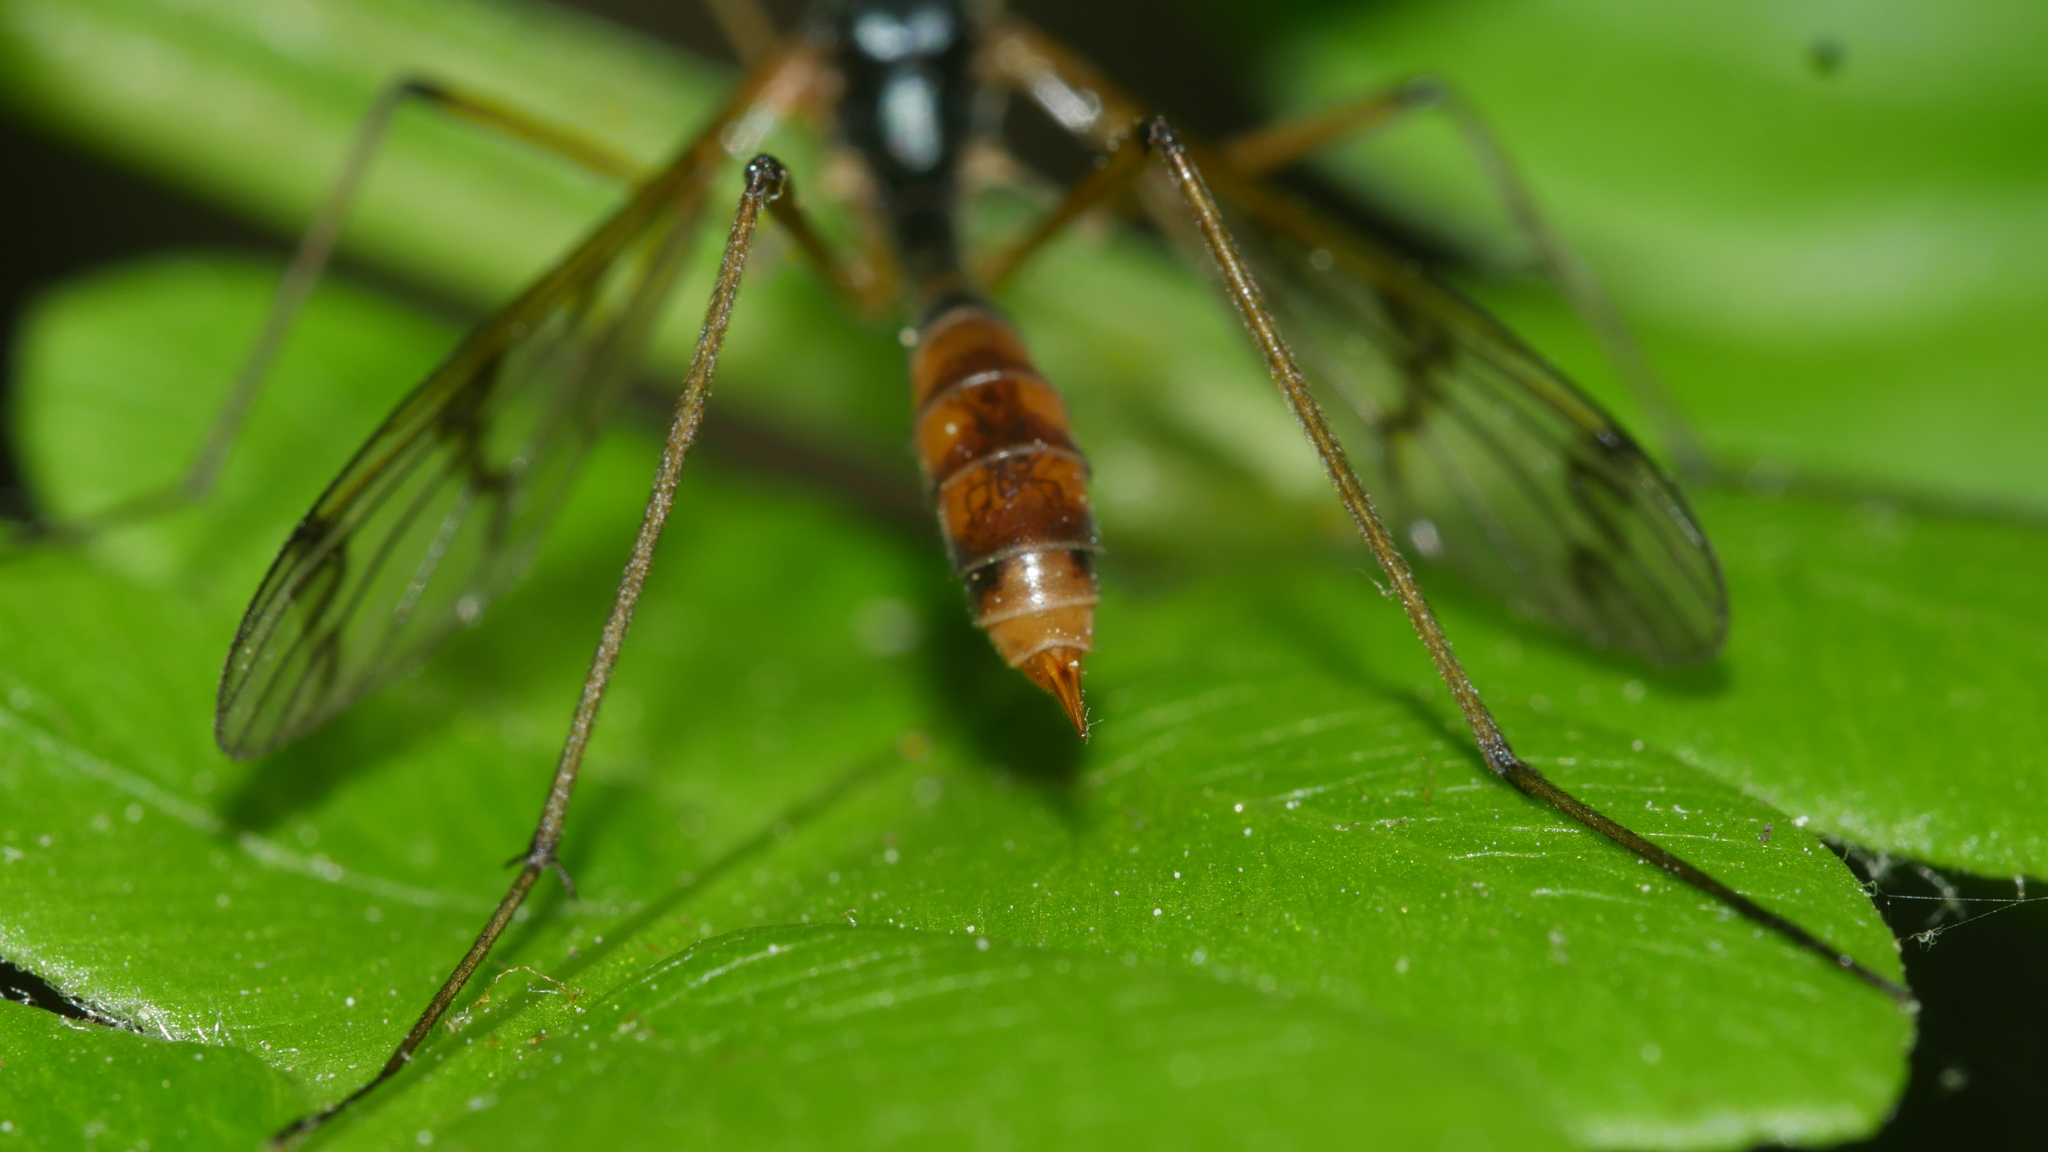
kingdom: Animalia
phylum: Arthropoda
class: Insecta
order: Diptera
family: Ptychopteridae
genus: Ptychoptera
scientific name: Ptychoptera quadrifasciata
